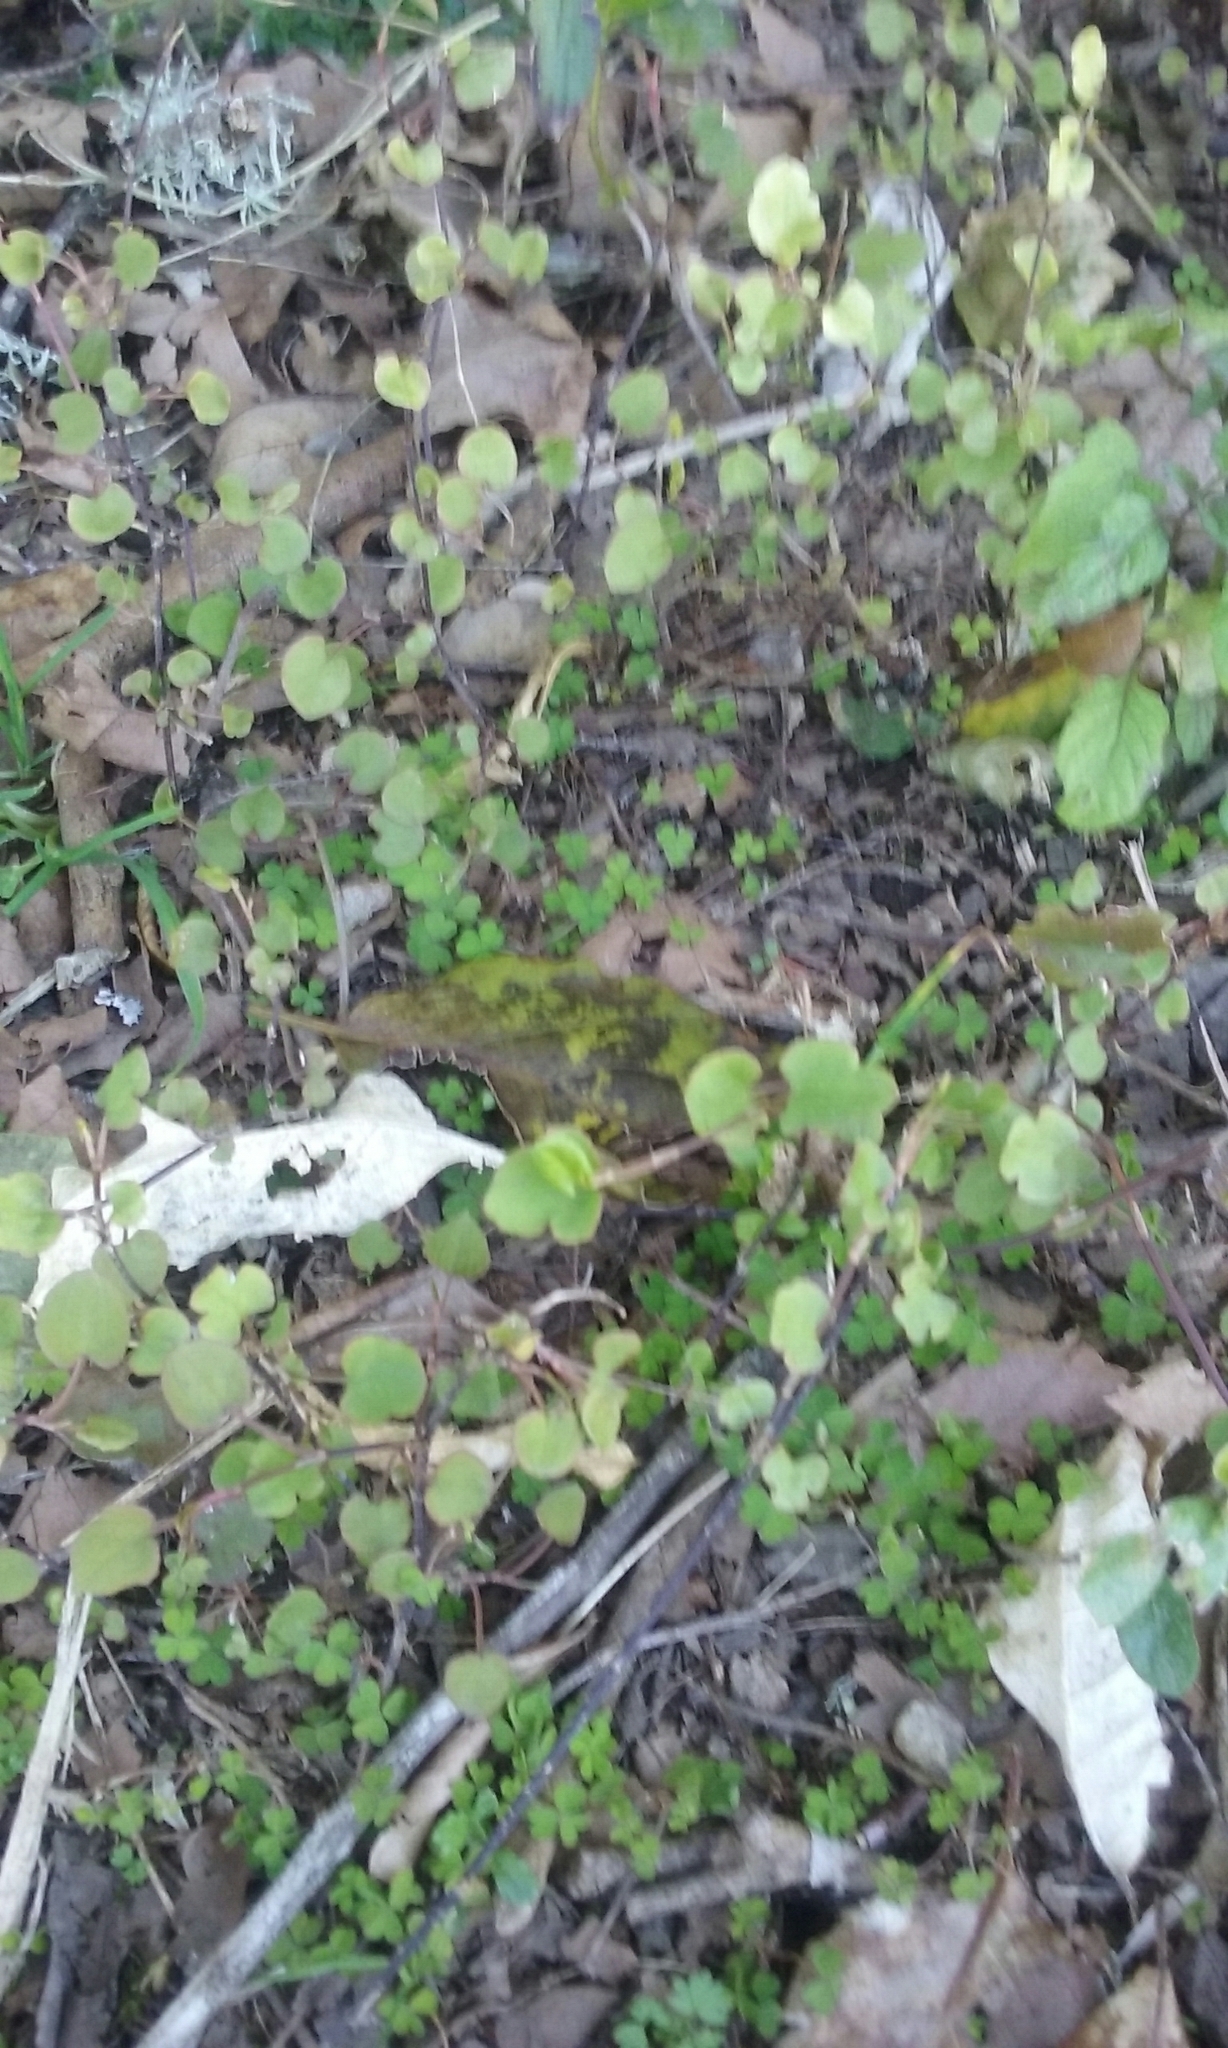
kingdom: Plantae
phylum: Tracheophyta
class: Magnoliopsida
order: Caryophyllales
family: Polygonaceae
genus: Muehlenbeckia
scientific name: Muehlenbeckia australis
